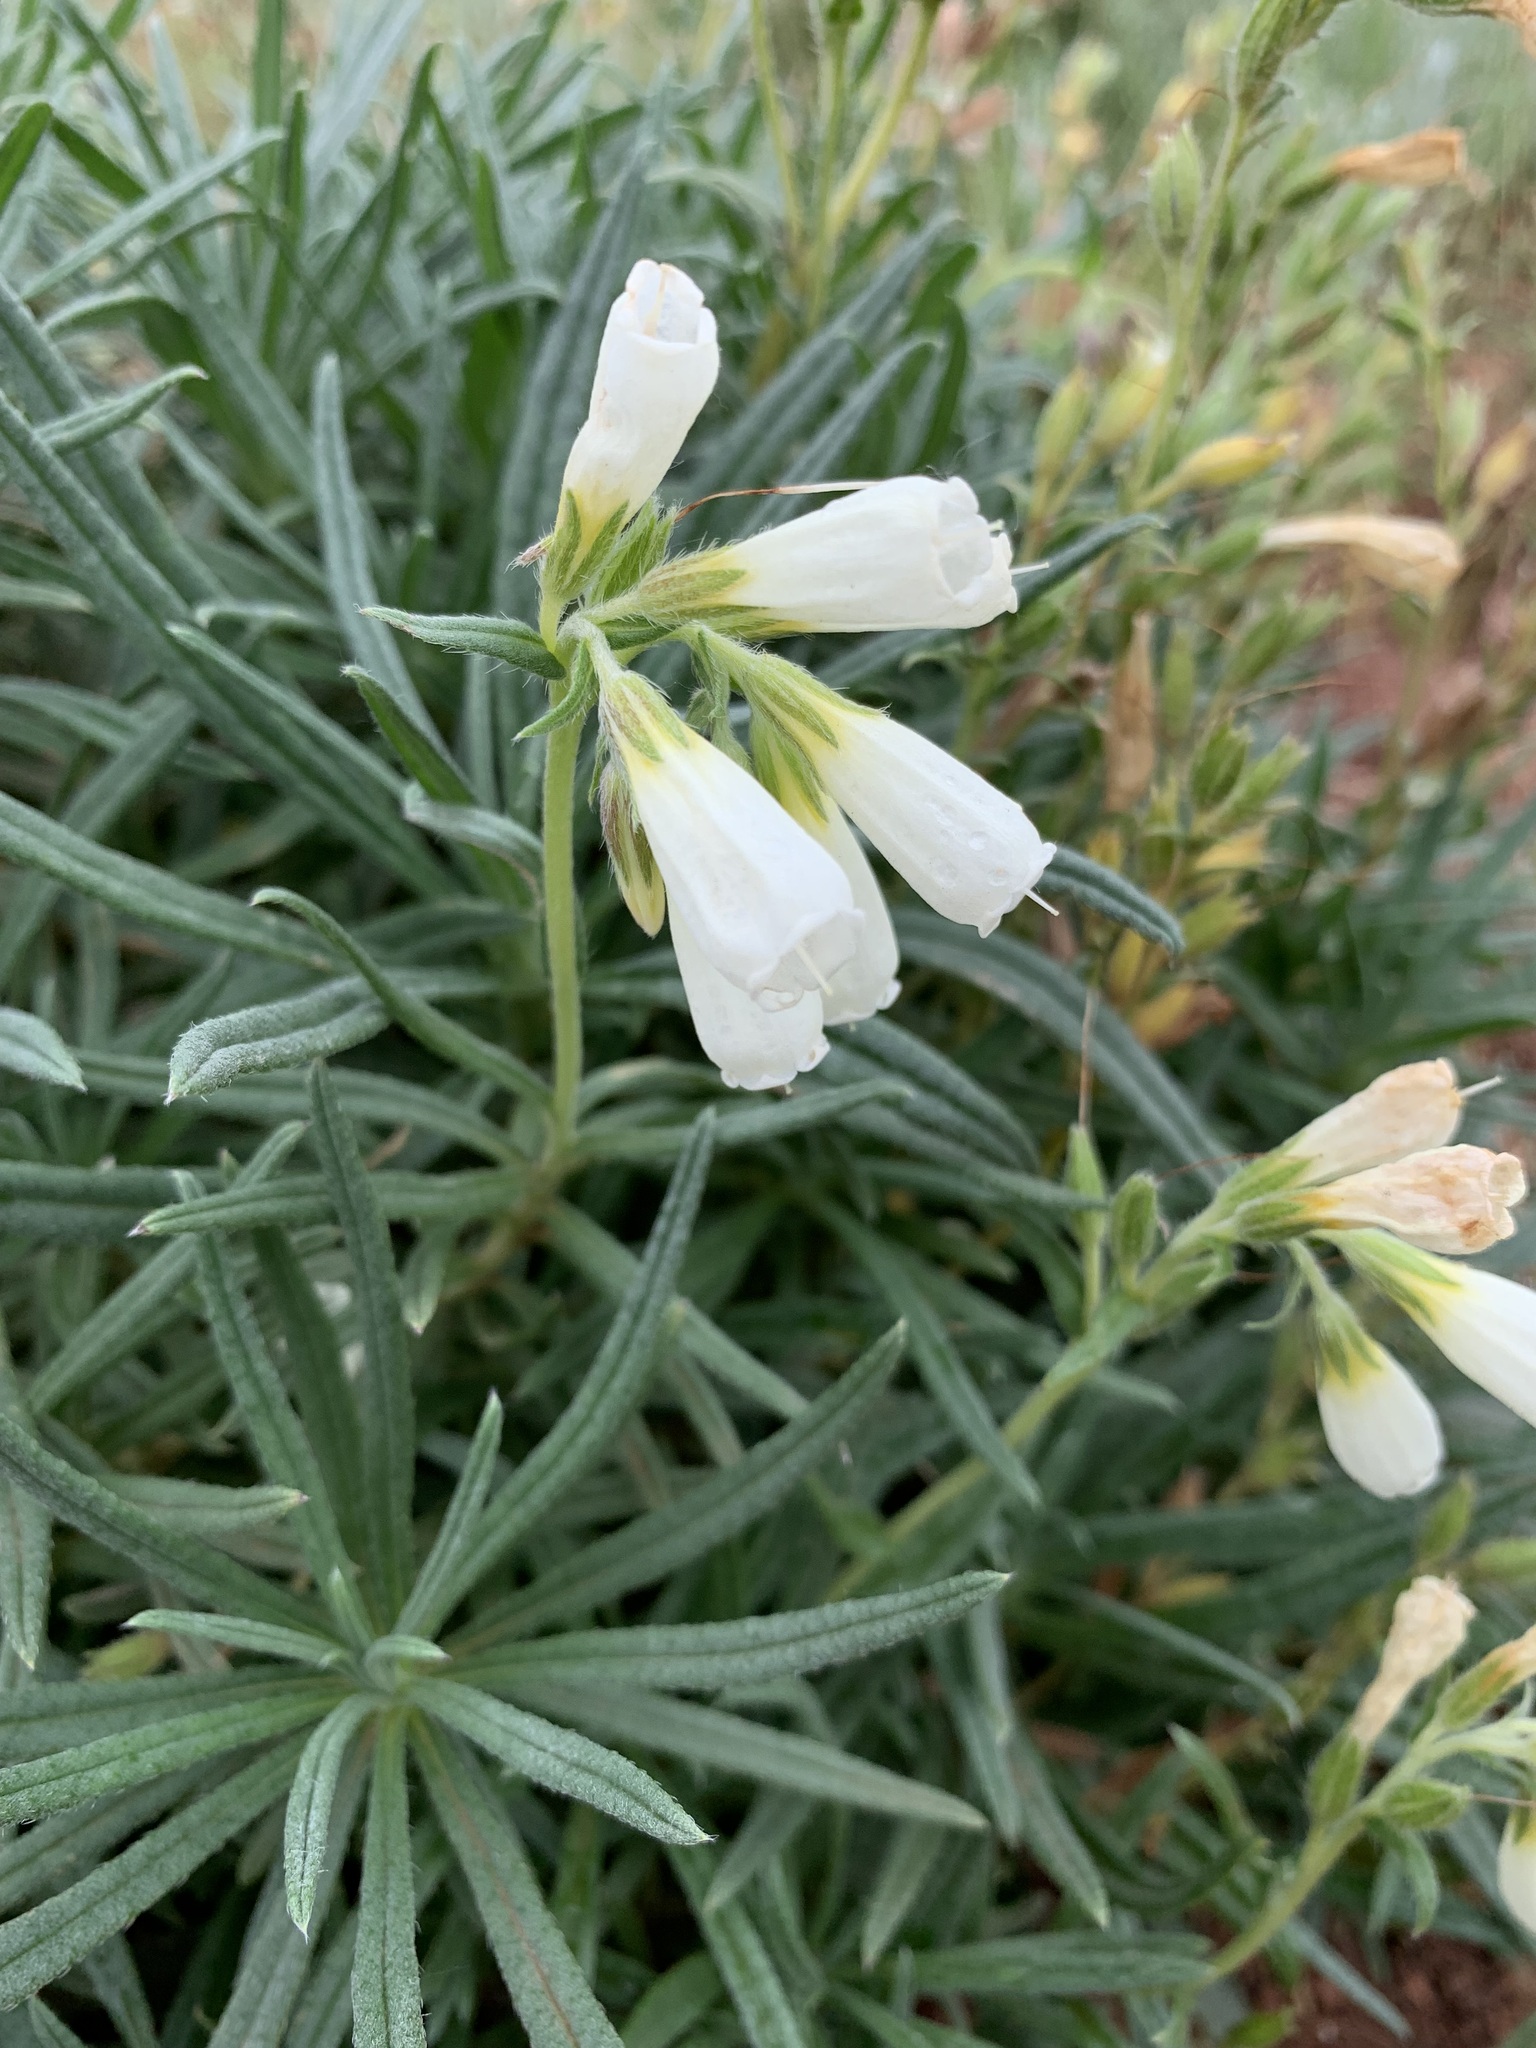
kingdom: Plantae
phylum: Tracheophyta
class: Magnoliopsida
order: Boraginales
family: Boraginaceae
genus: Onosma
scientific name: Onosma simplicissima
